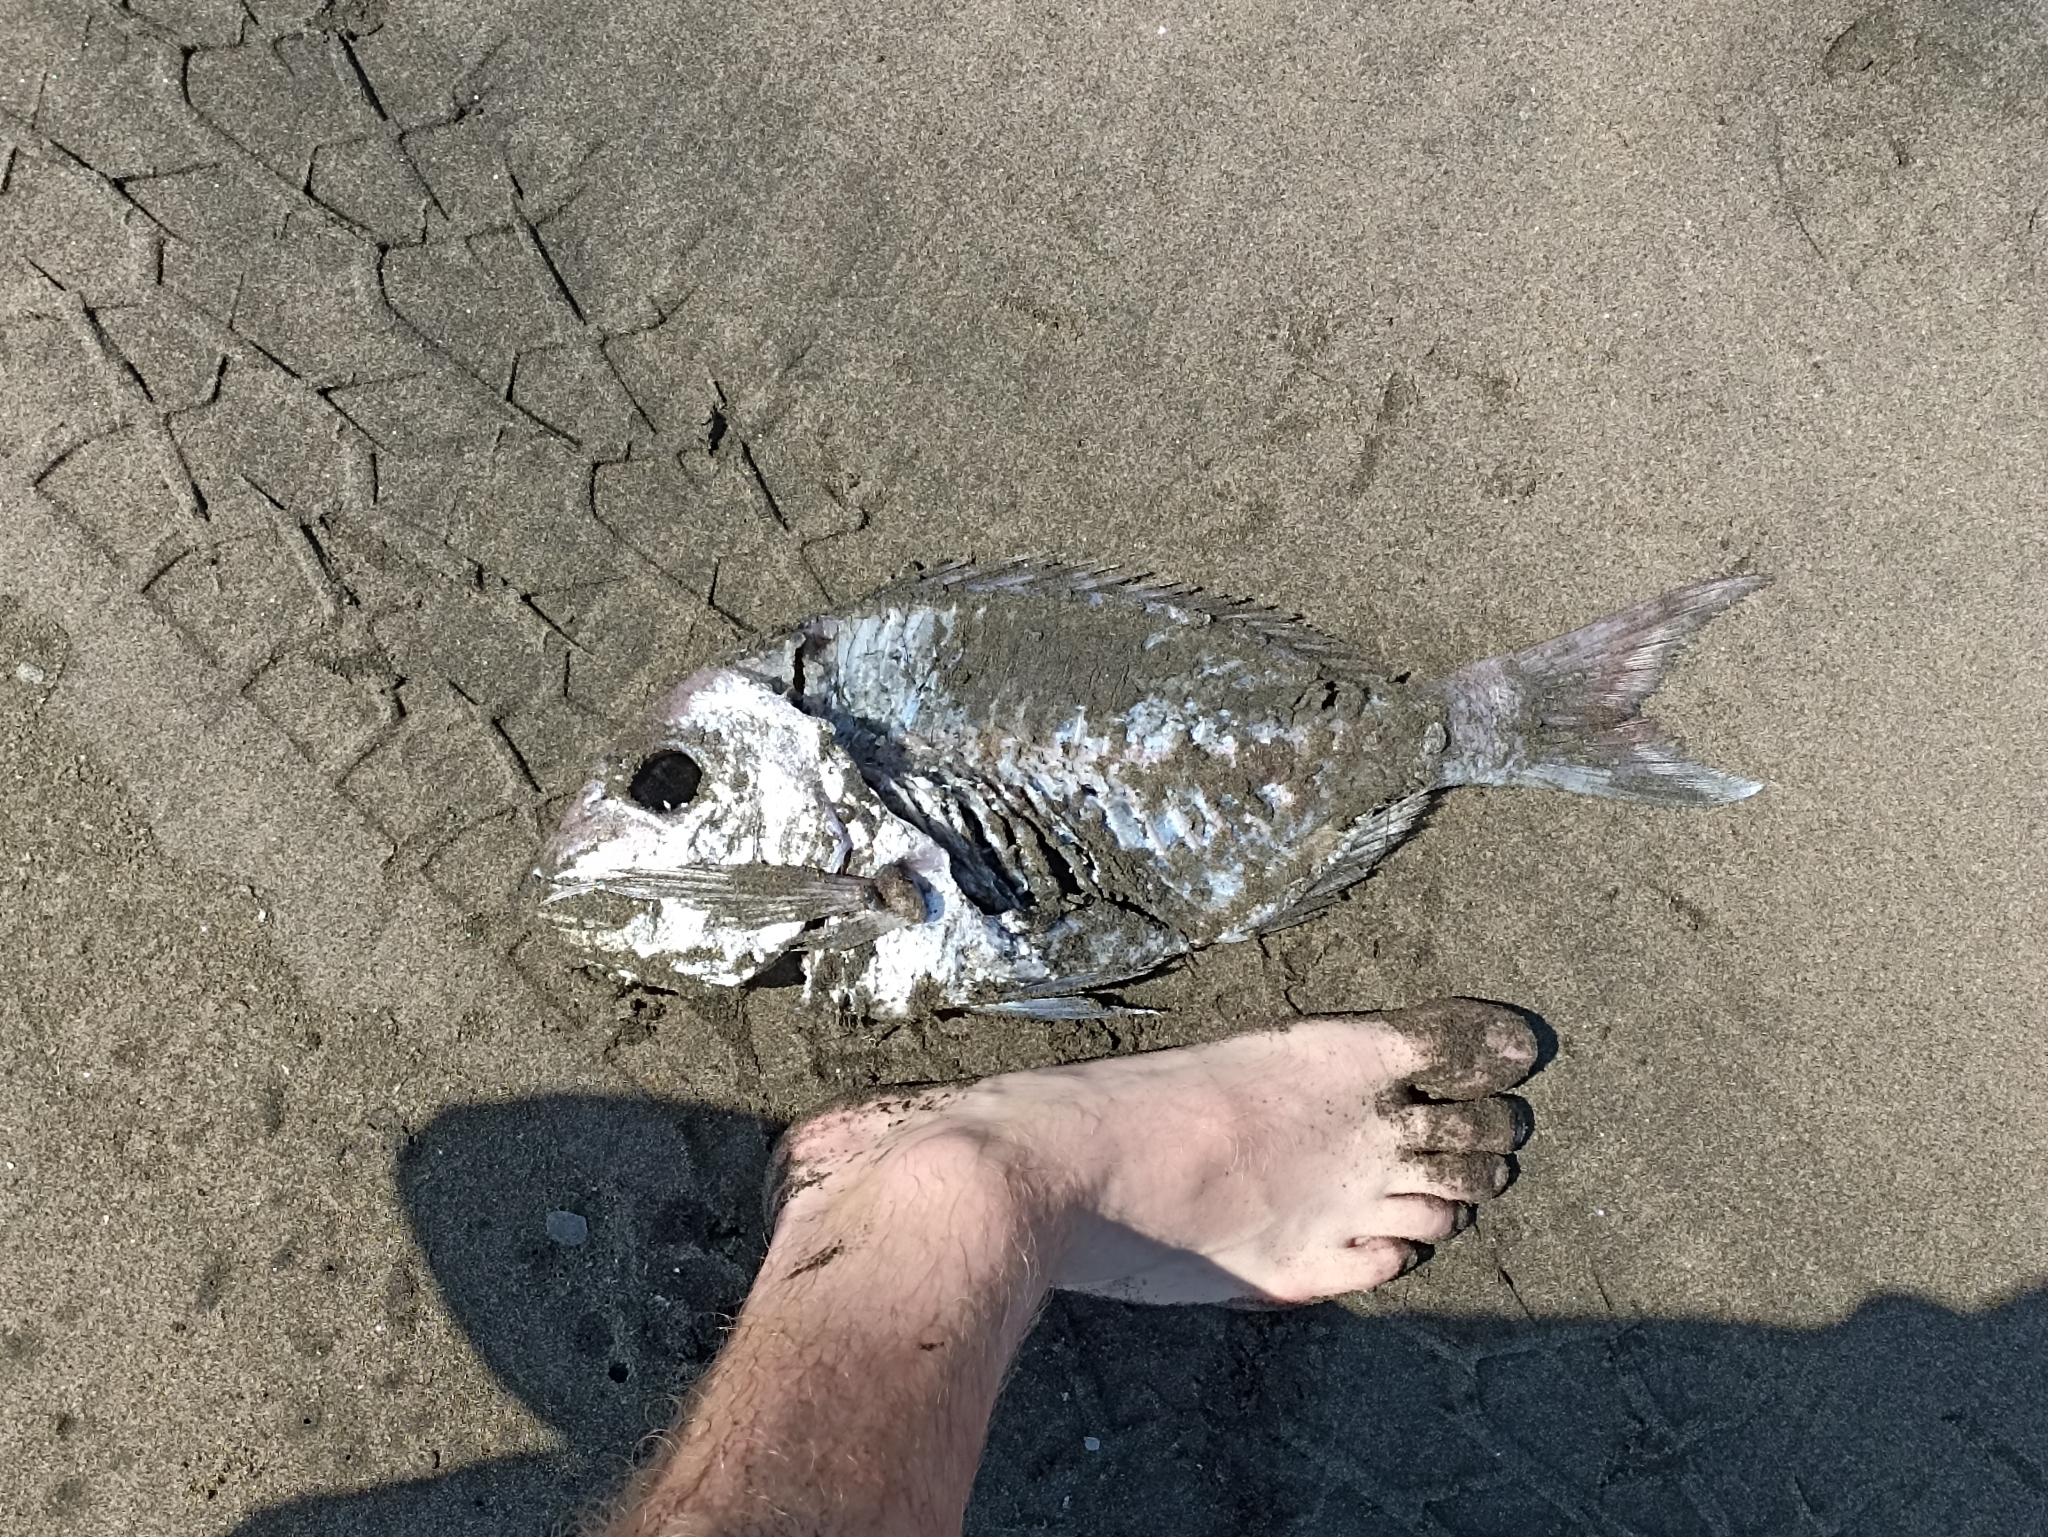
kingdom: Animalia
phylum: Chordata
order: Perciformes
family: Sparidae
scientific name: Sparidae
